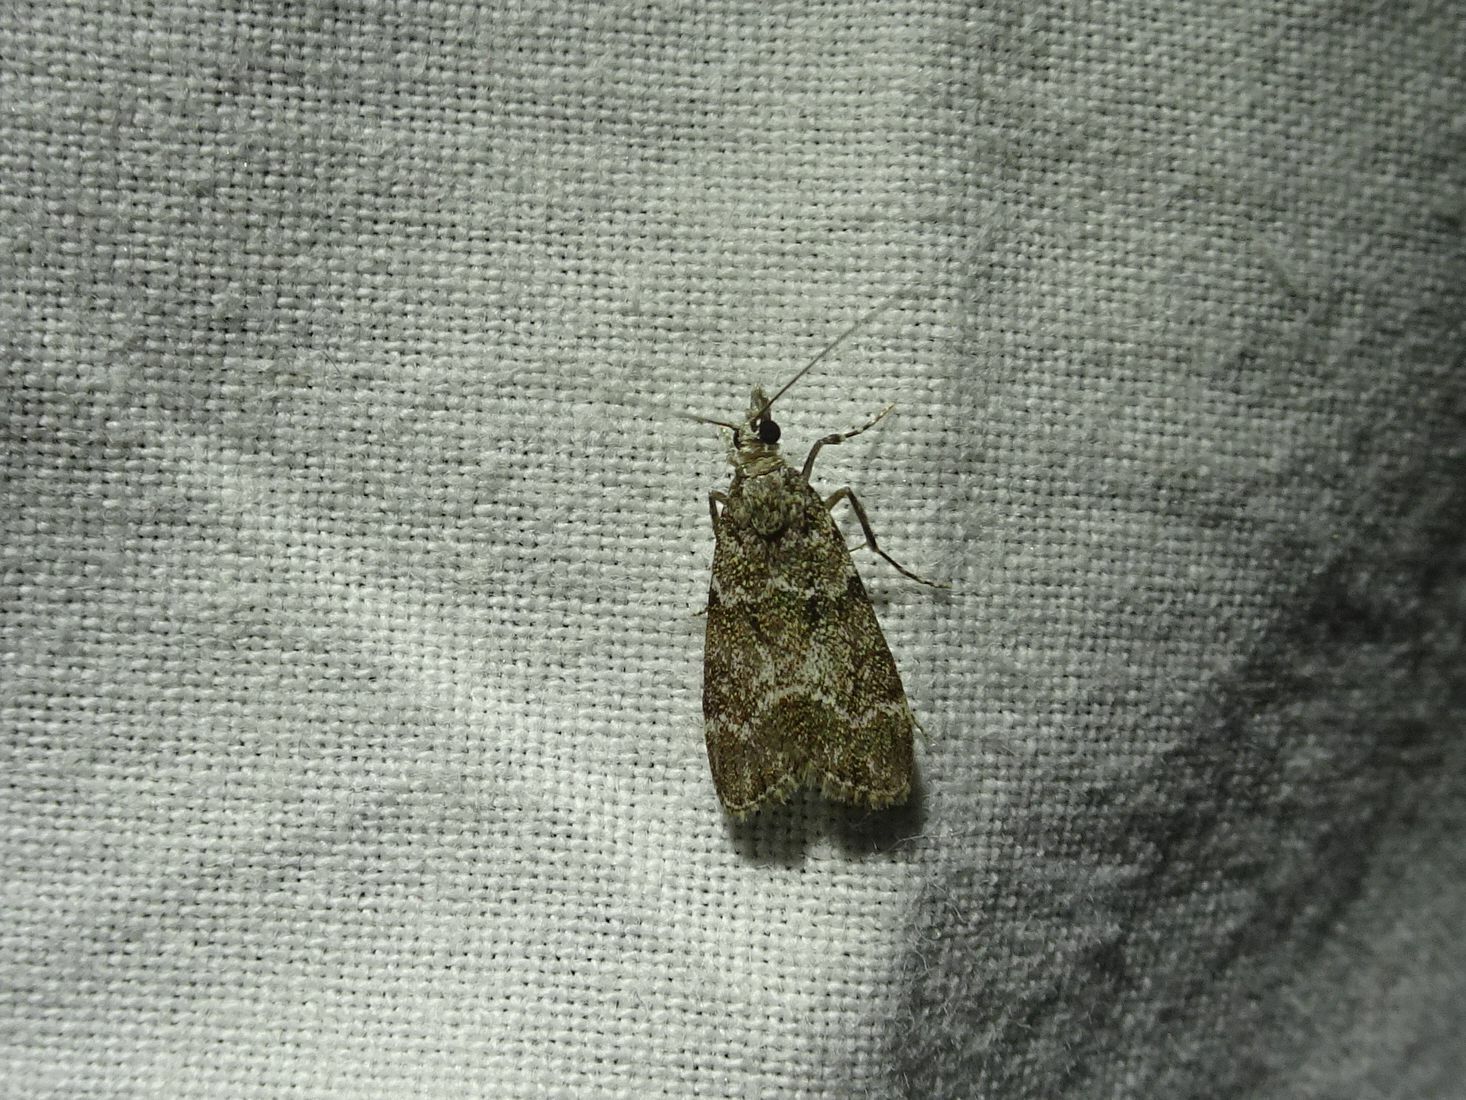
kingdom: Animalia
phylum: Arthropoda
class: Insecta
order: Lepidoptera
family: Crambidae
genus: Eudonia
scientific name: Eudonia mercurella
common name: Small grey
